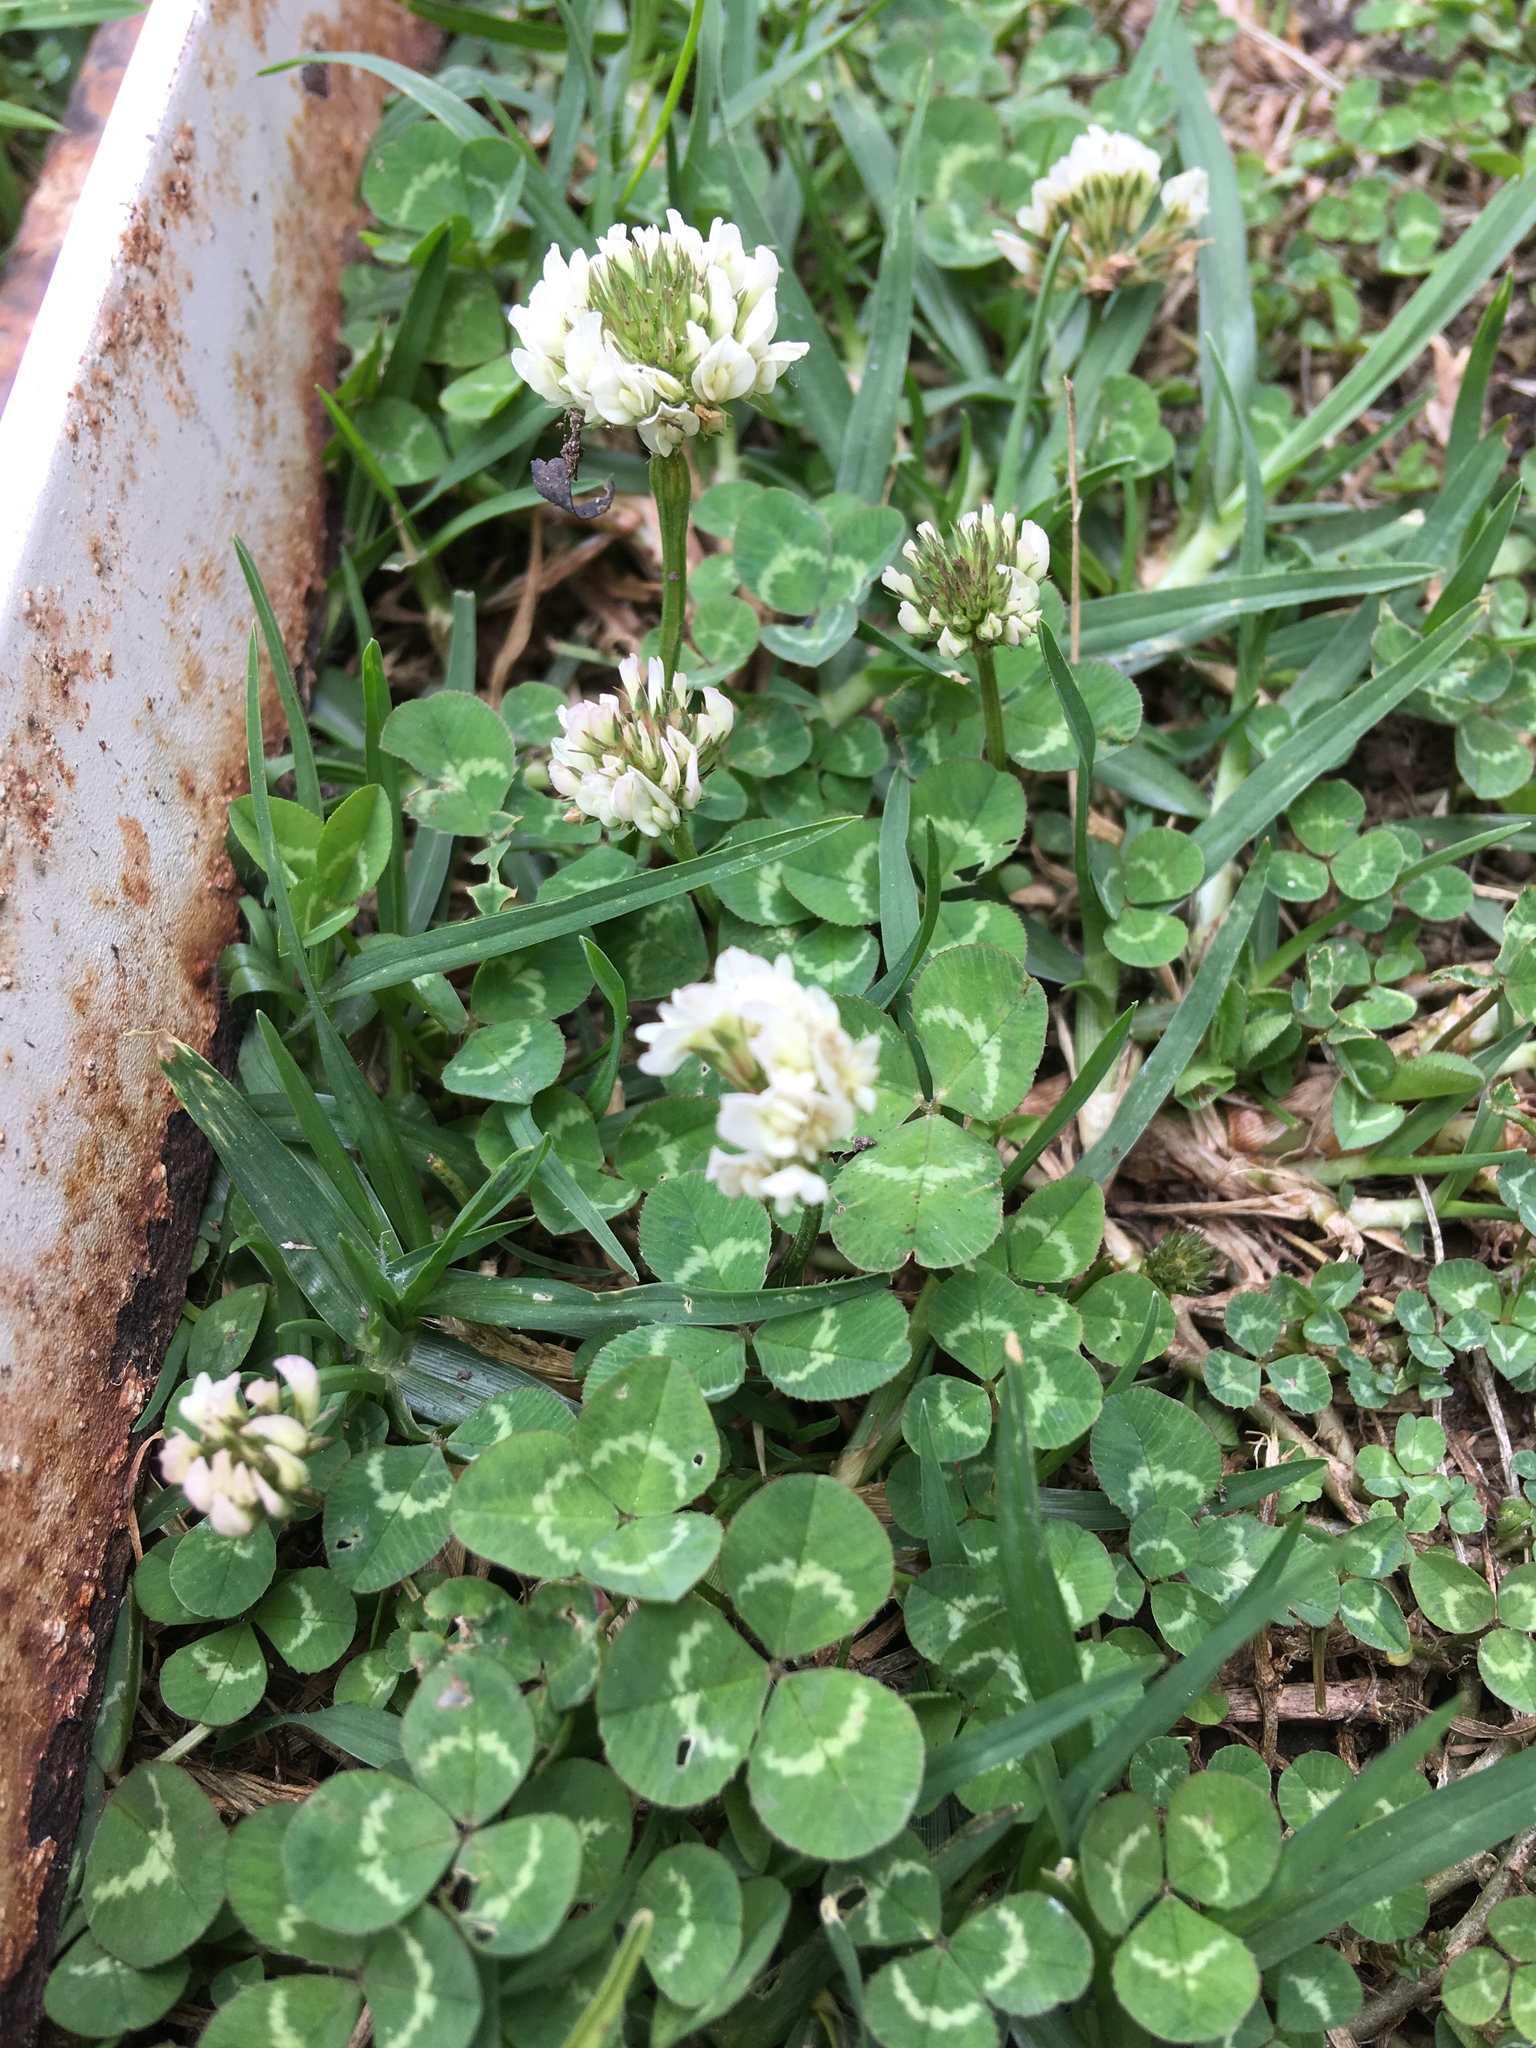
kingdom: Plantae
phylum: Tracheophyta
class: Magnoliopsida
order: Fabales
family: Fabaceae
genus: Trifolium
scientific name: Trifolium repens
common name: White clover
